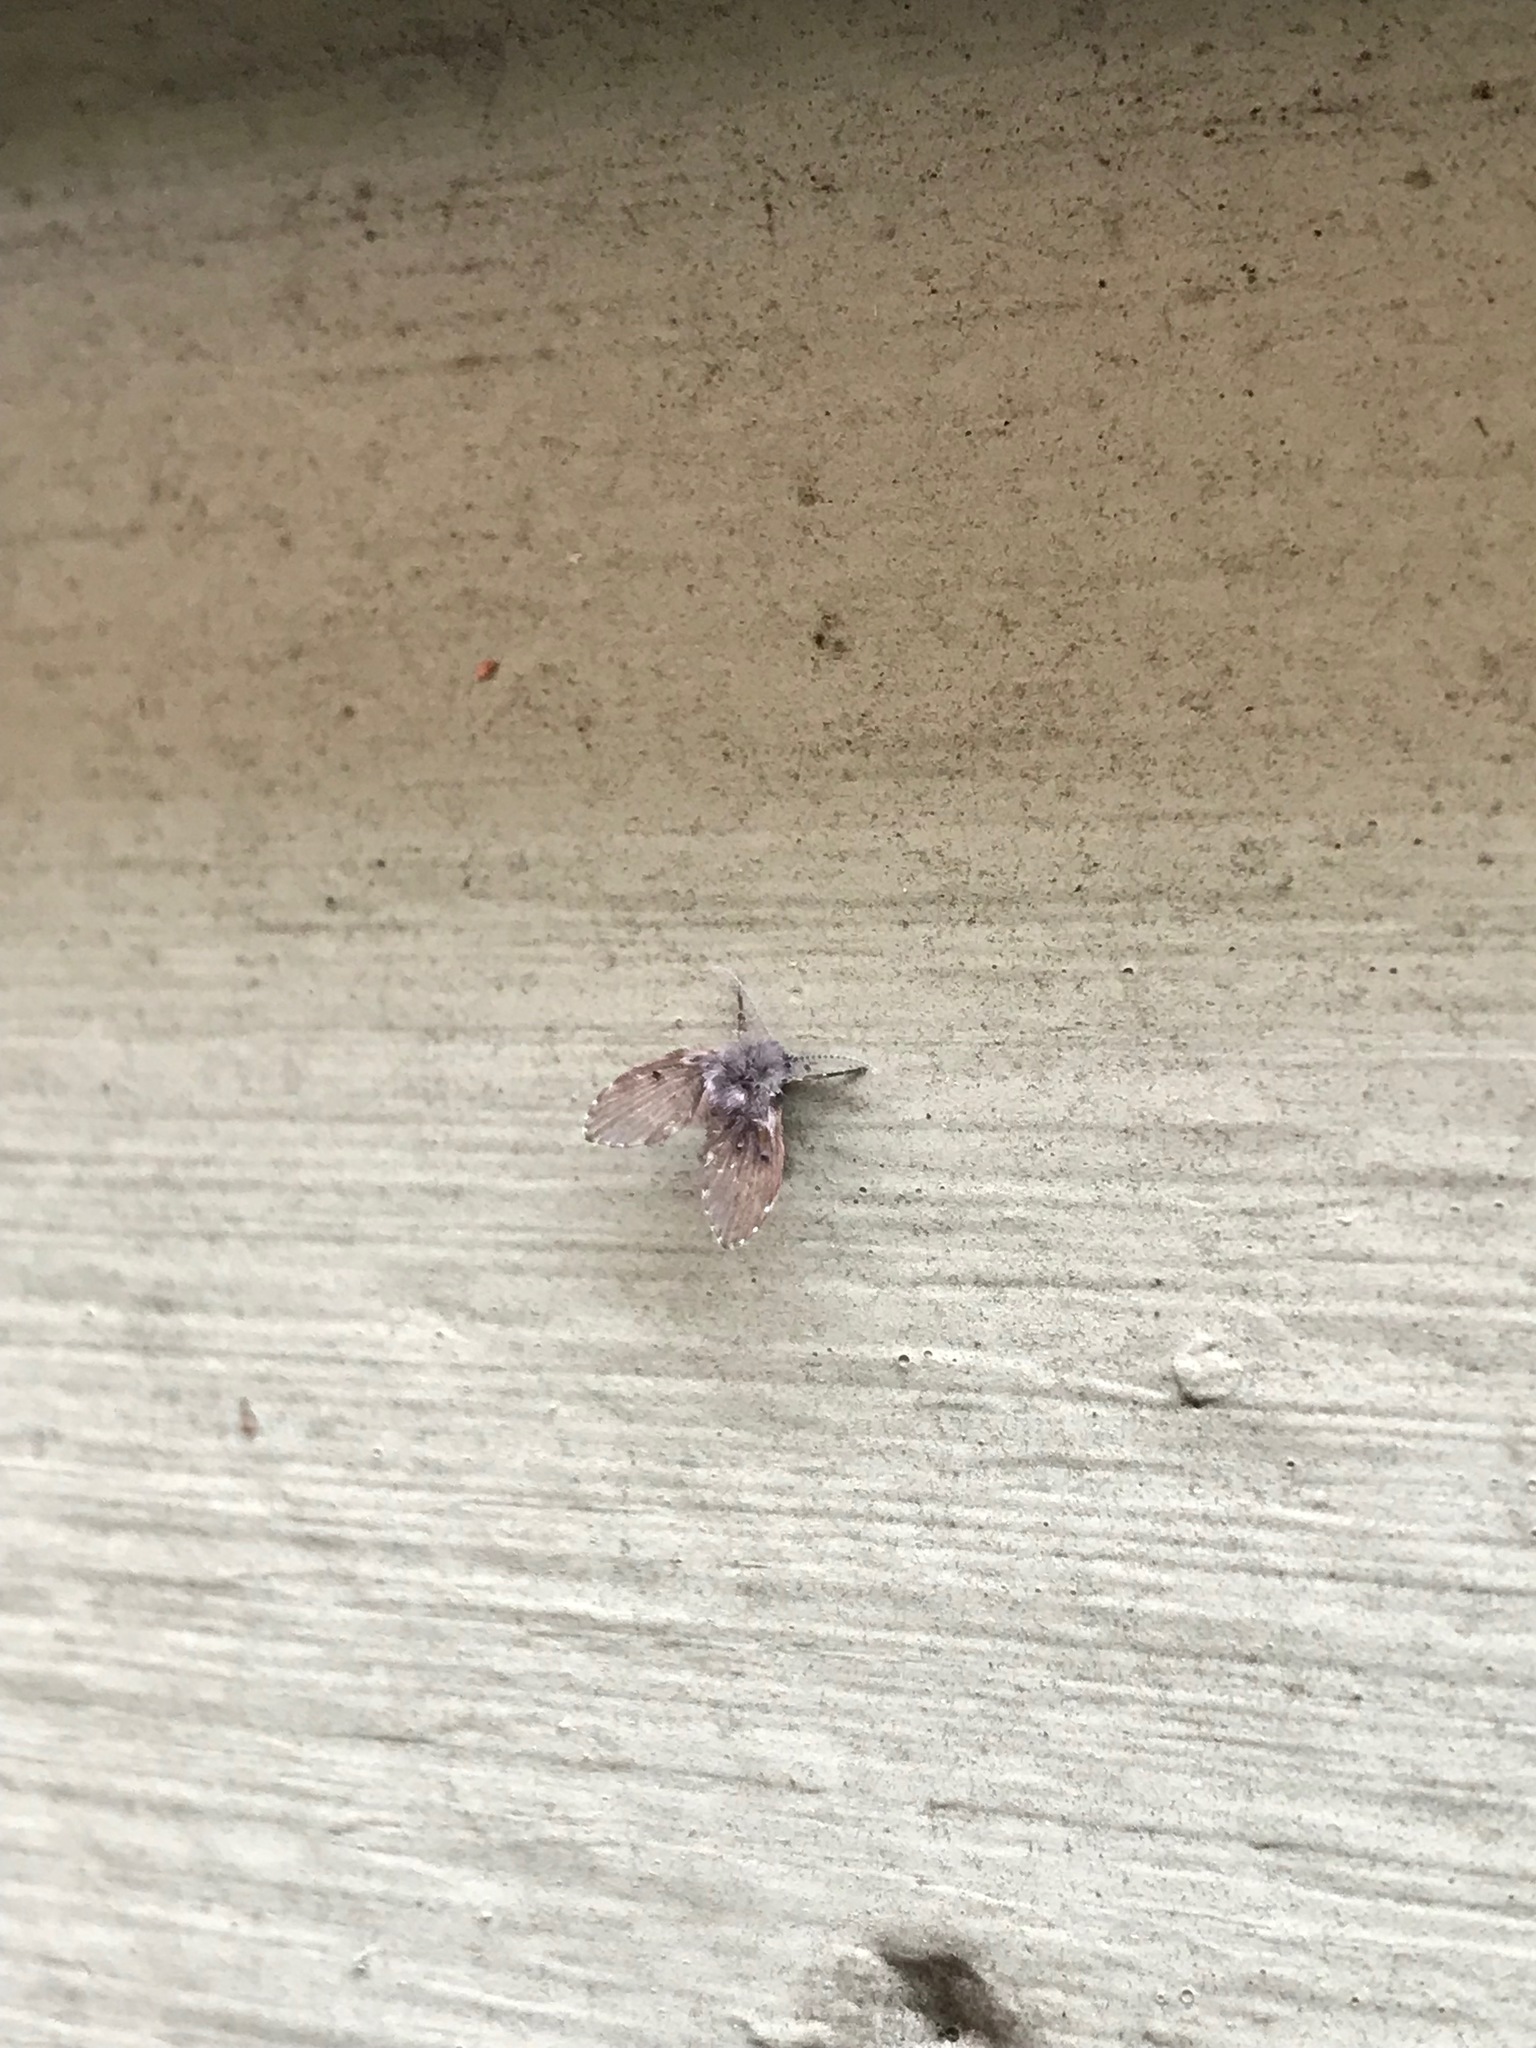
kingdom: Animalia
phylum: Arthropoda
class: Insecta
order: Diptera
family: Psychodidae
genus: Clogmia
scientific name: Clogmia albipunctatus
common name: White-spotted moth fly
